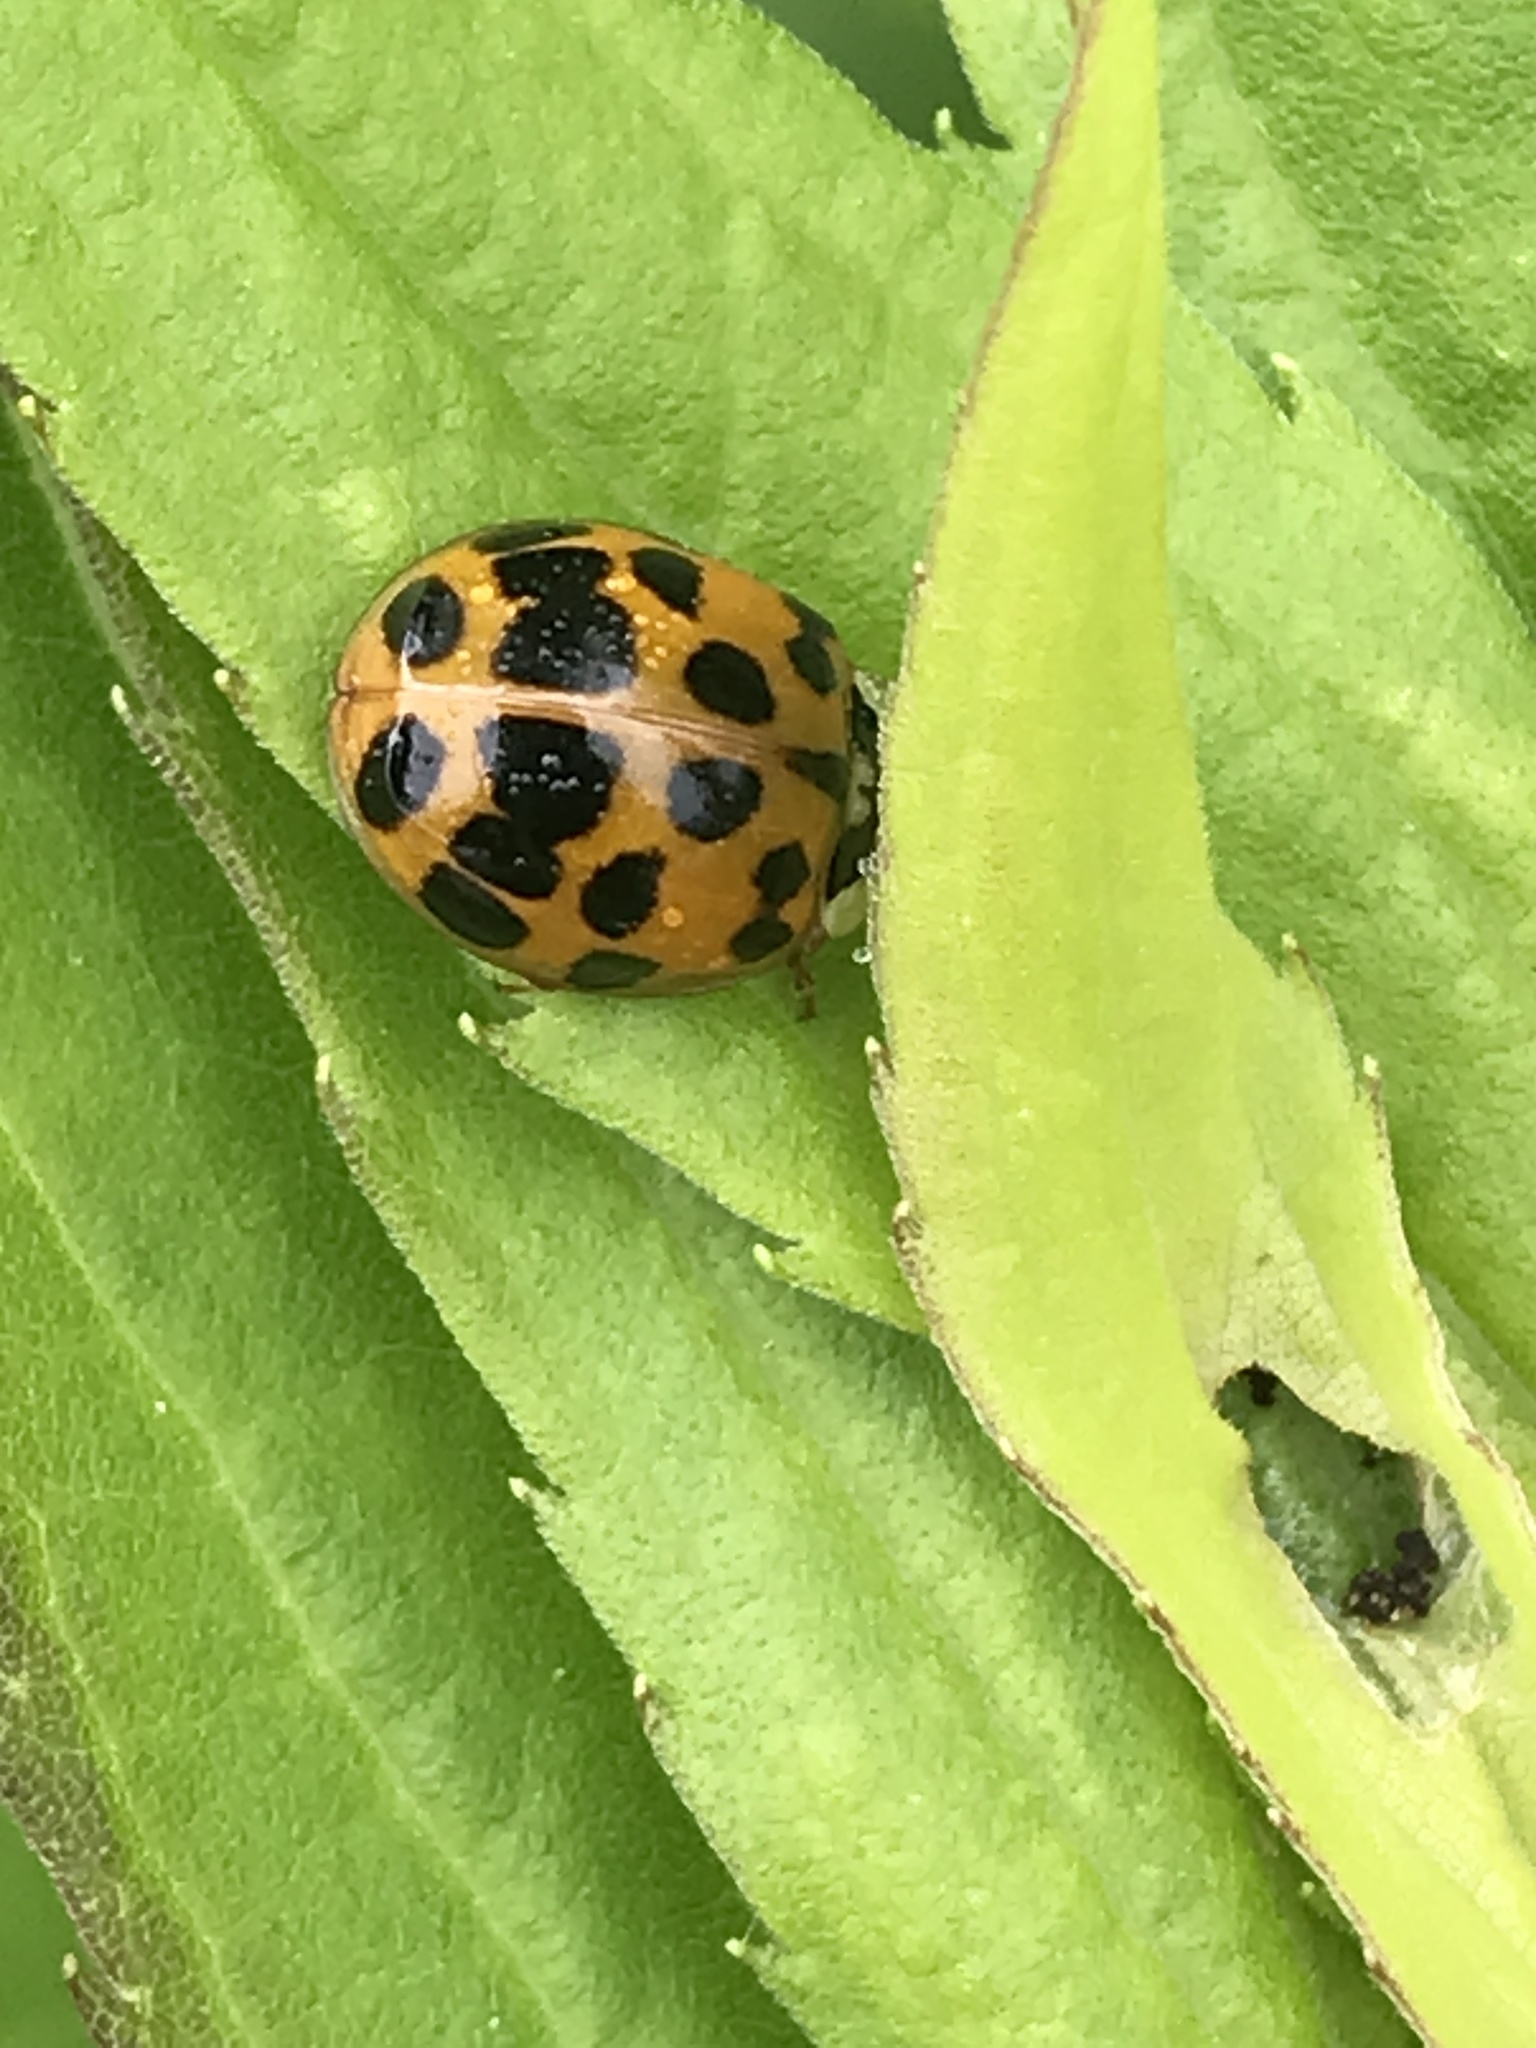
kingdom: Animalia
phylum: Arthropoda
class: Insecta
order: Coleoptera
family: Coccinellidae
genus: Harmonia
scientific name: Harmonia axyridis
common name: Harlequin ladybird
